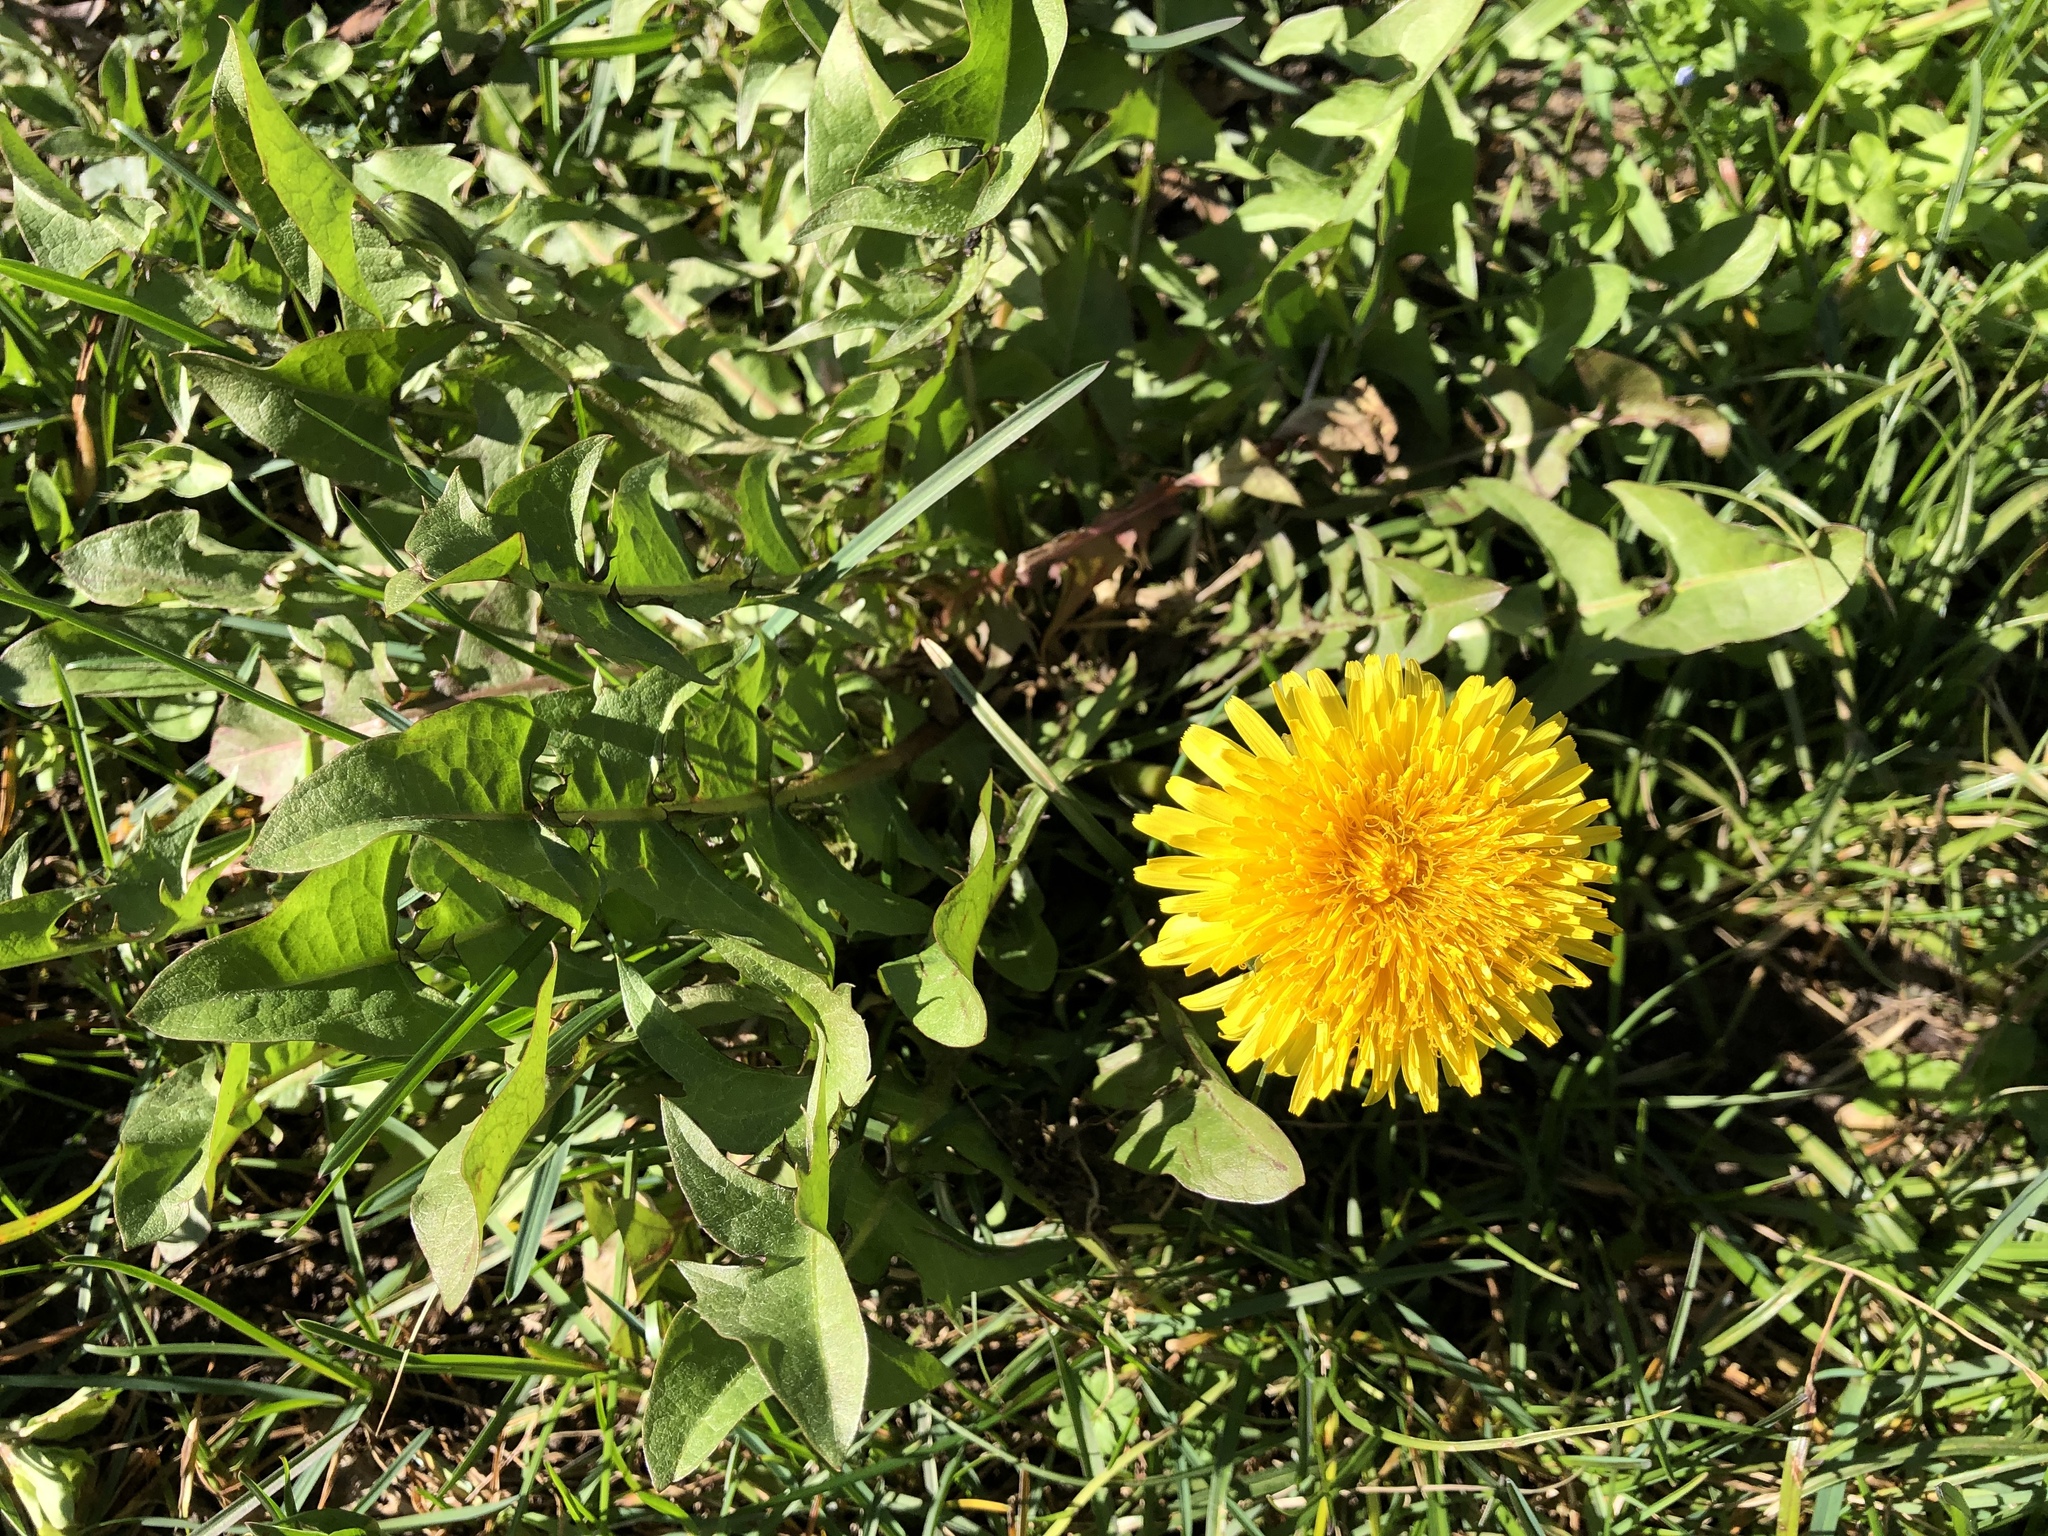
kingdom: Plantae
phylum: Tracheophyta
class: Magnoliopsida
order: Asterales
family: Asteraceae
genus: Taraxacum
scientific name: Taraxacum officinale
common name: Common dandelion
